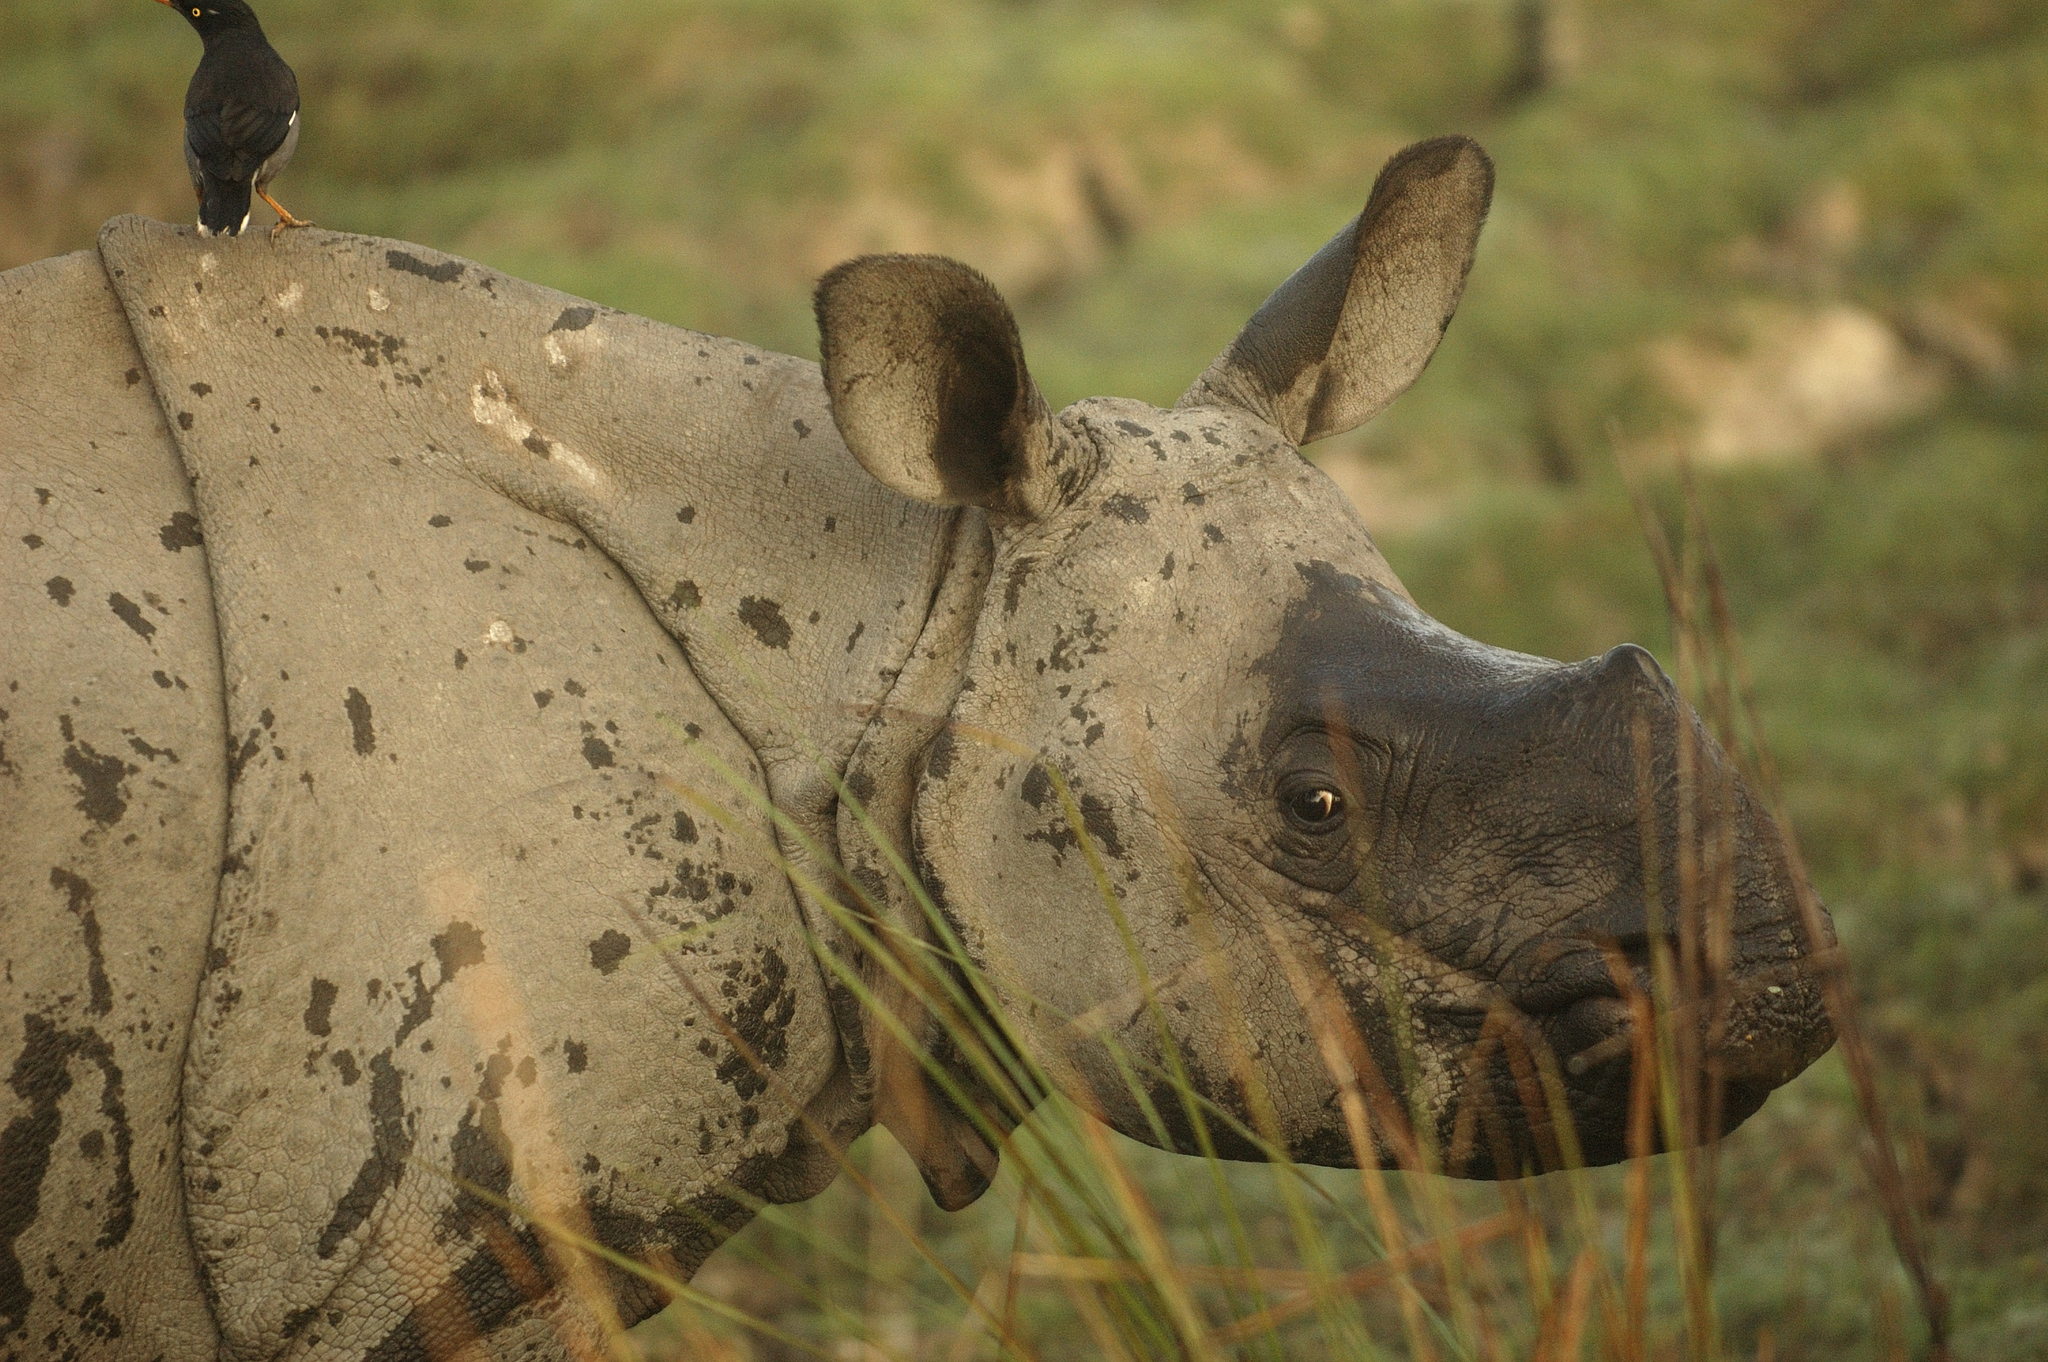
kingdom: Animalia
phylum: Chordata
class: Mammalia
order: Perissodactyla
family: Rhinocerotidae
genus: Rhinoceros
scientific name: Rhinoceros unicornis
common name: Indian rhinoceros
